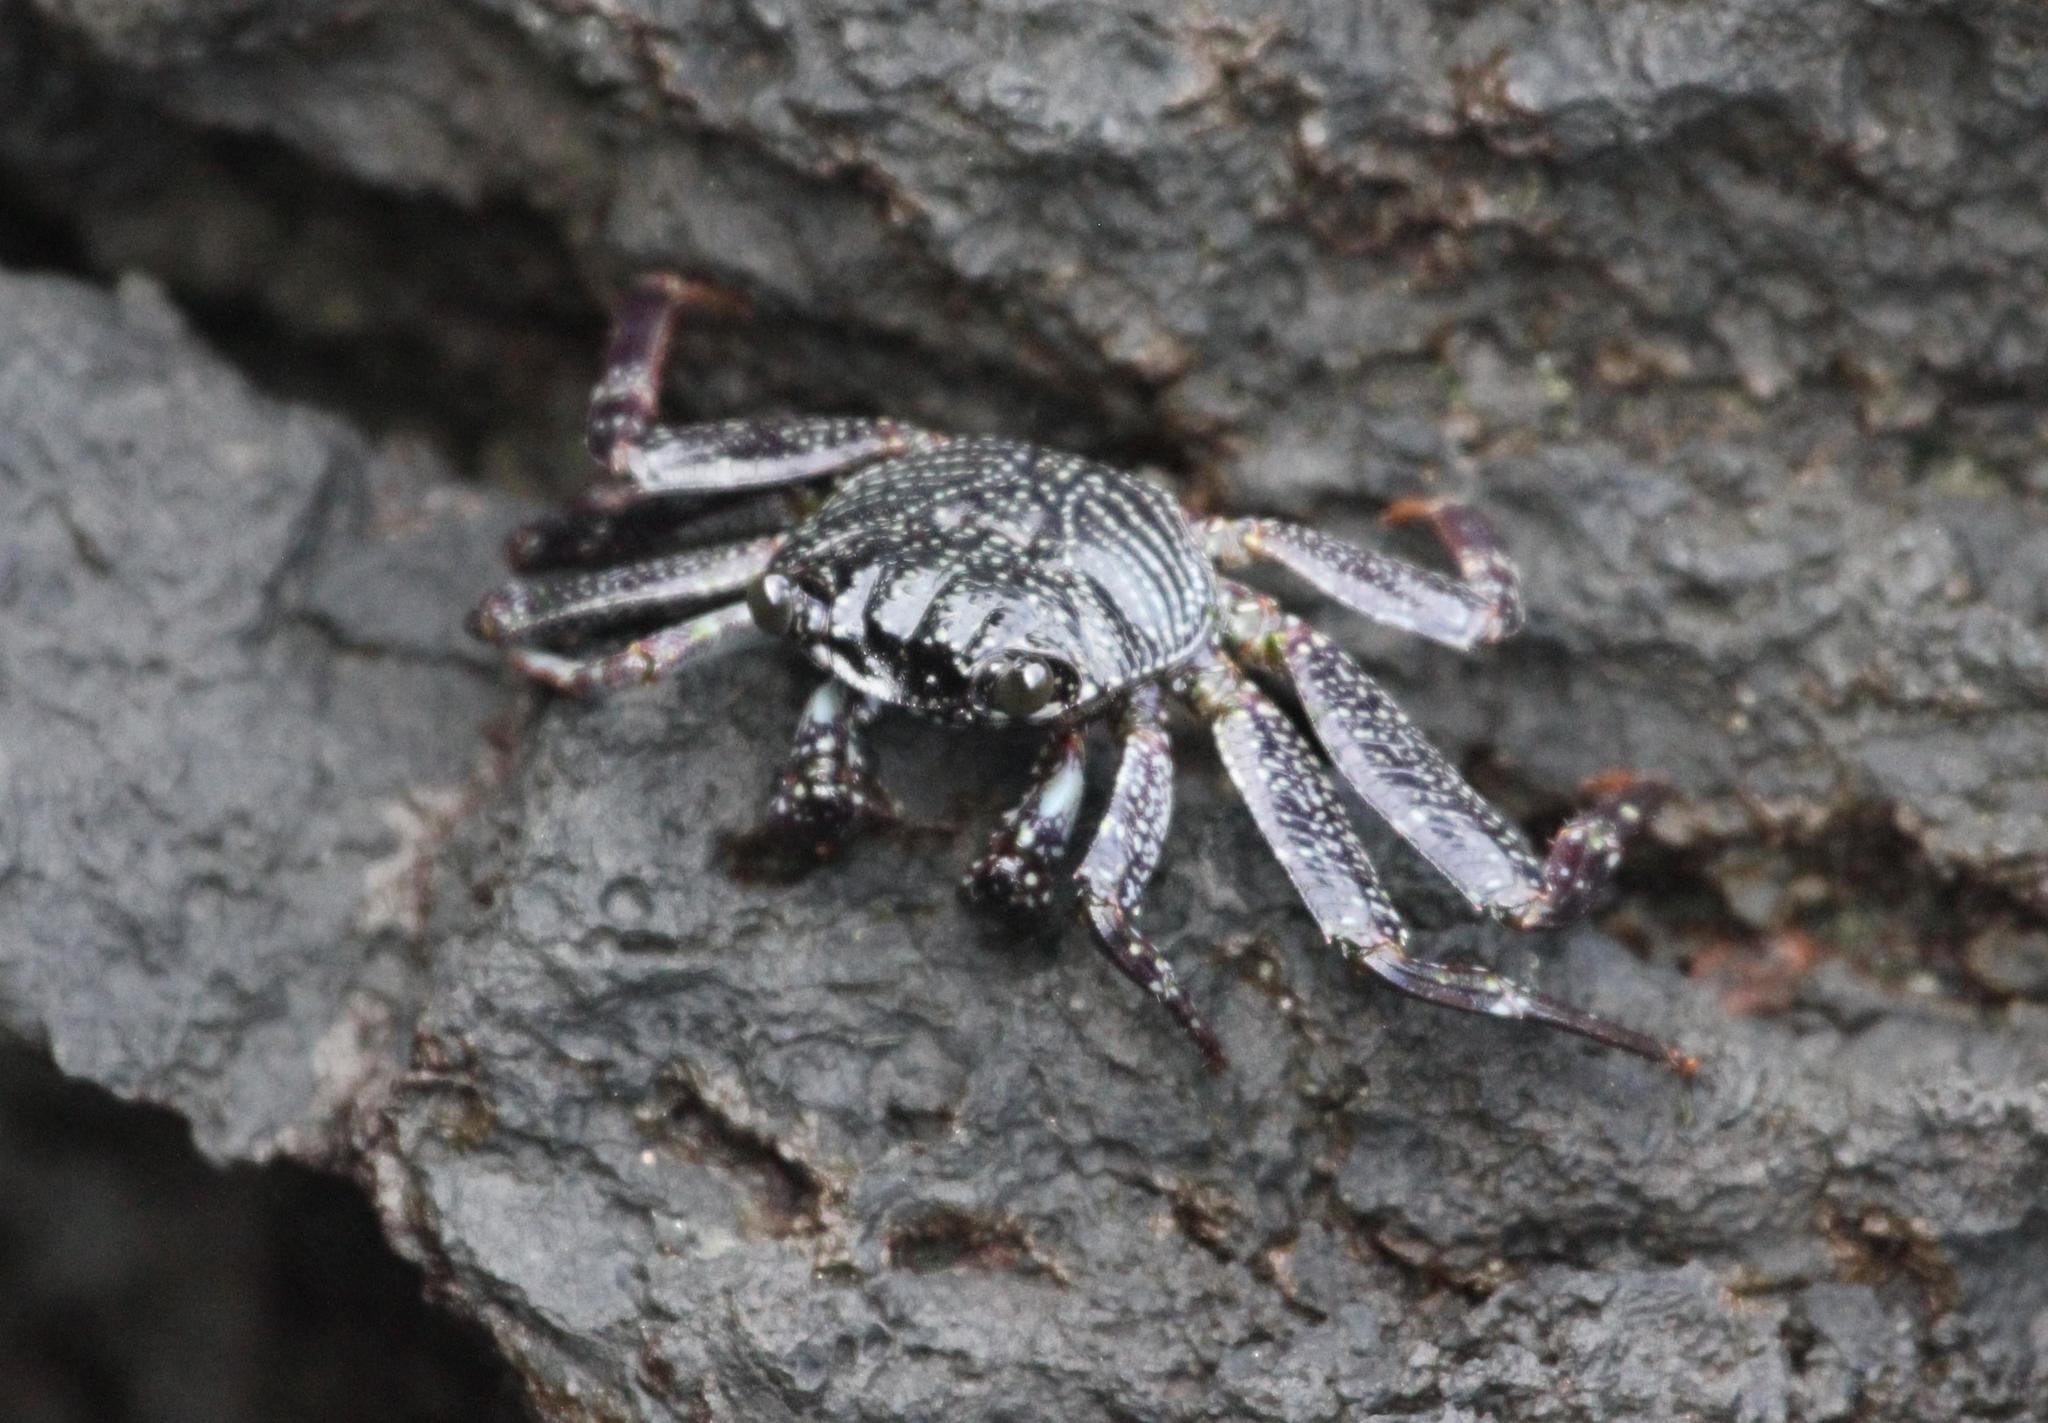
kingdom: Animalia
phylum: Arthropoda
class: Malacostraca
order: Decapoda
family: Grapsidae
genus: Grapsus
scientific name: Grapsus tenuicrustatus
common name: Natal lightfoot crab
